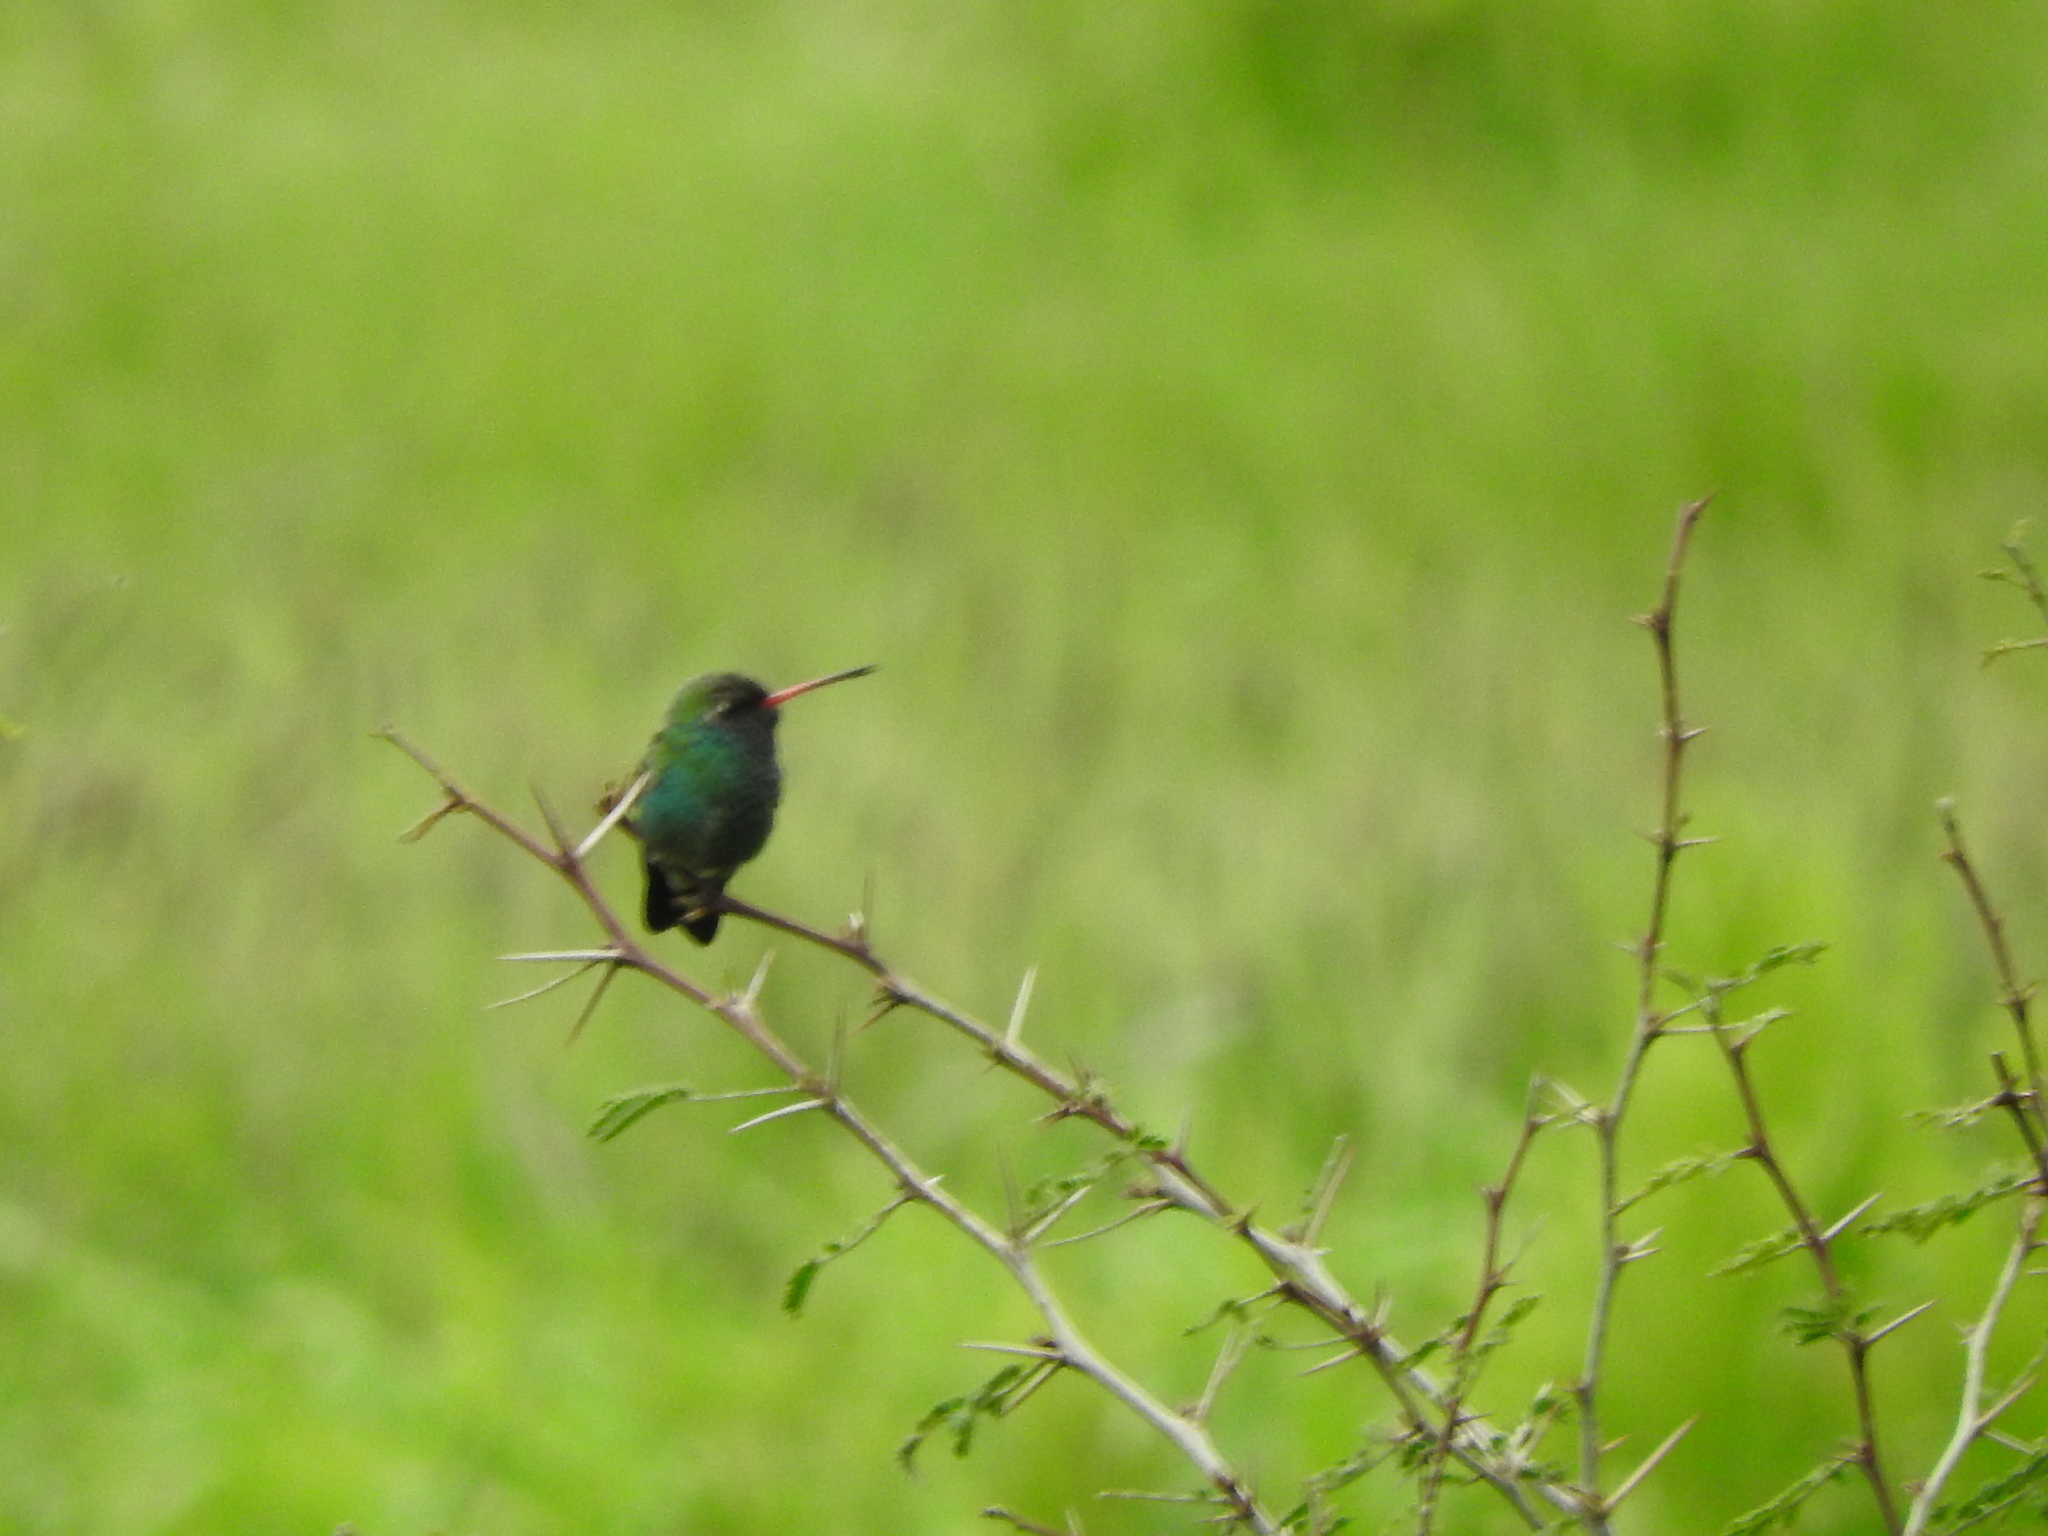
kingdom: Animalia
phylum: Chordata
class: Aves
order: Apodiformes
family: Trochilidae
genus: Cynanthus
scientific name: Cynanthus latirostris
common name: Broad-billed hummingbird
